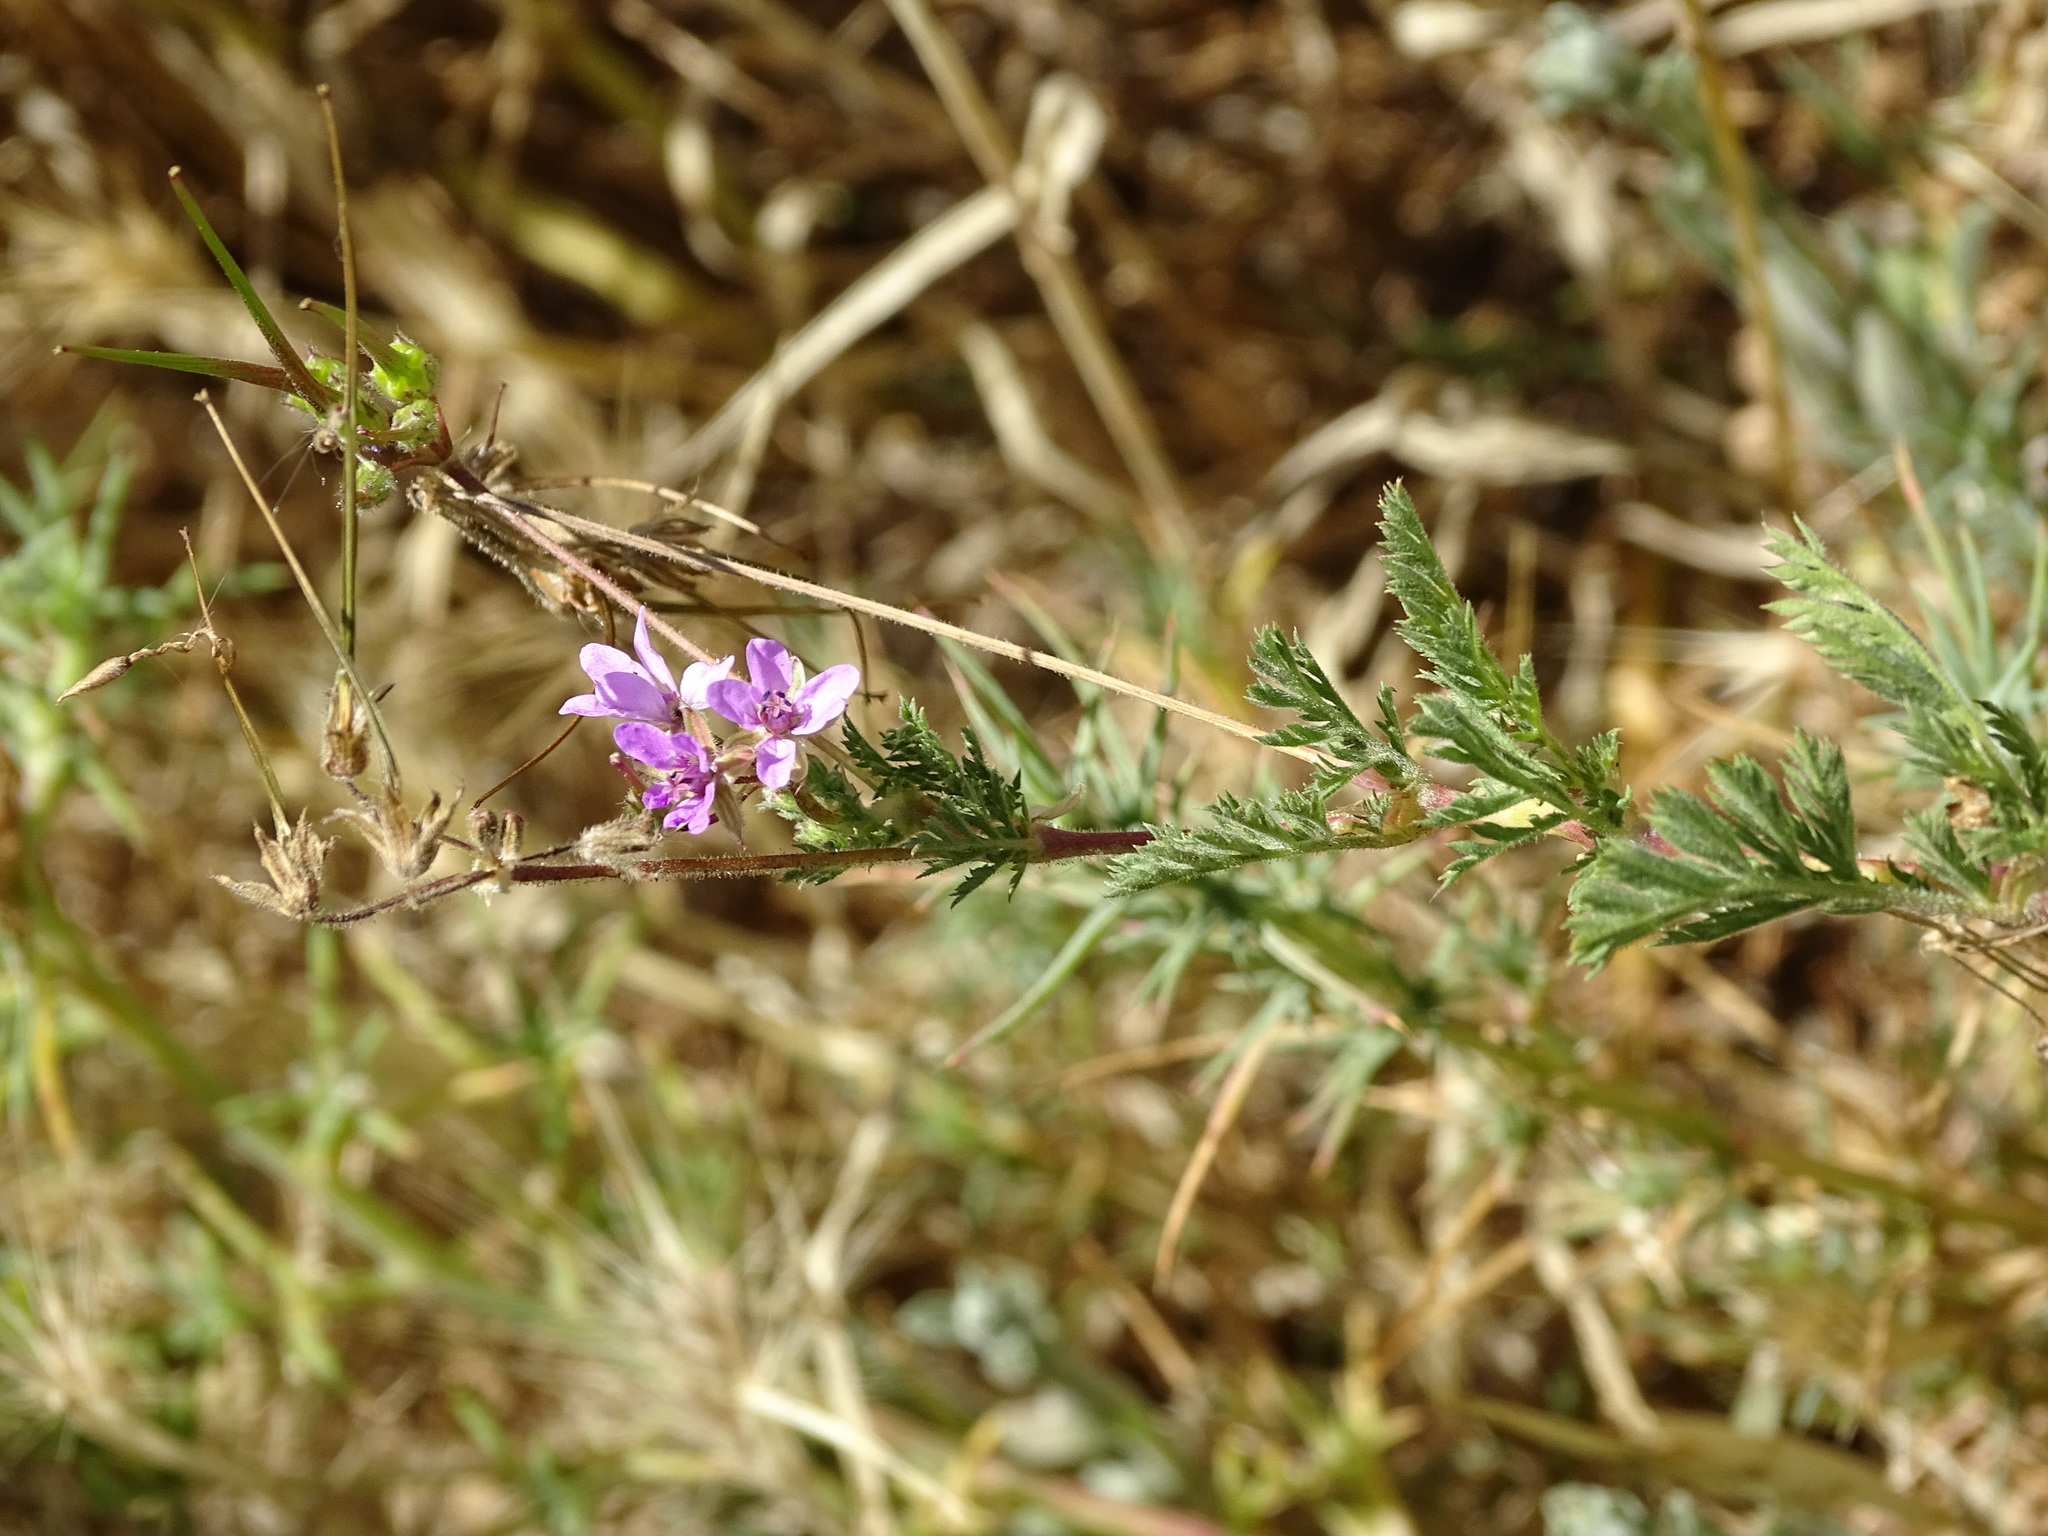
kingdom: Plantae
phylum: Tracheophyta
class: Magnoliopsida
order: Geraniales
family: Geraniaceae
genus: Erodium
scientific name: Erodium cicutarium
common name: Common stork's-bill
